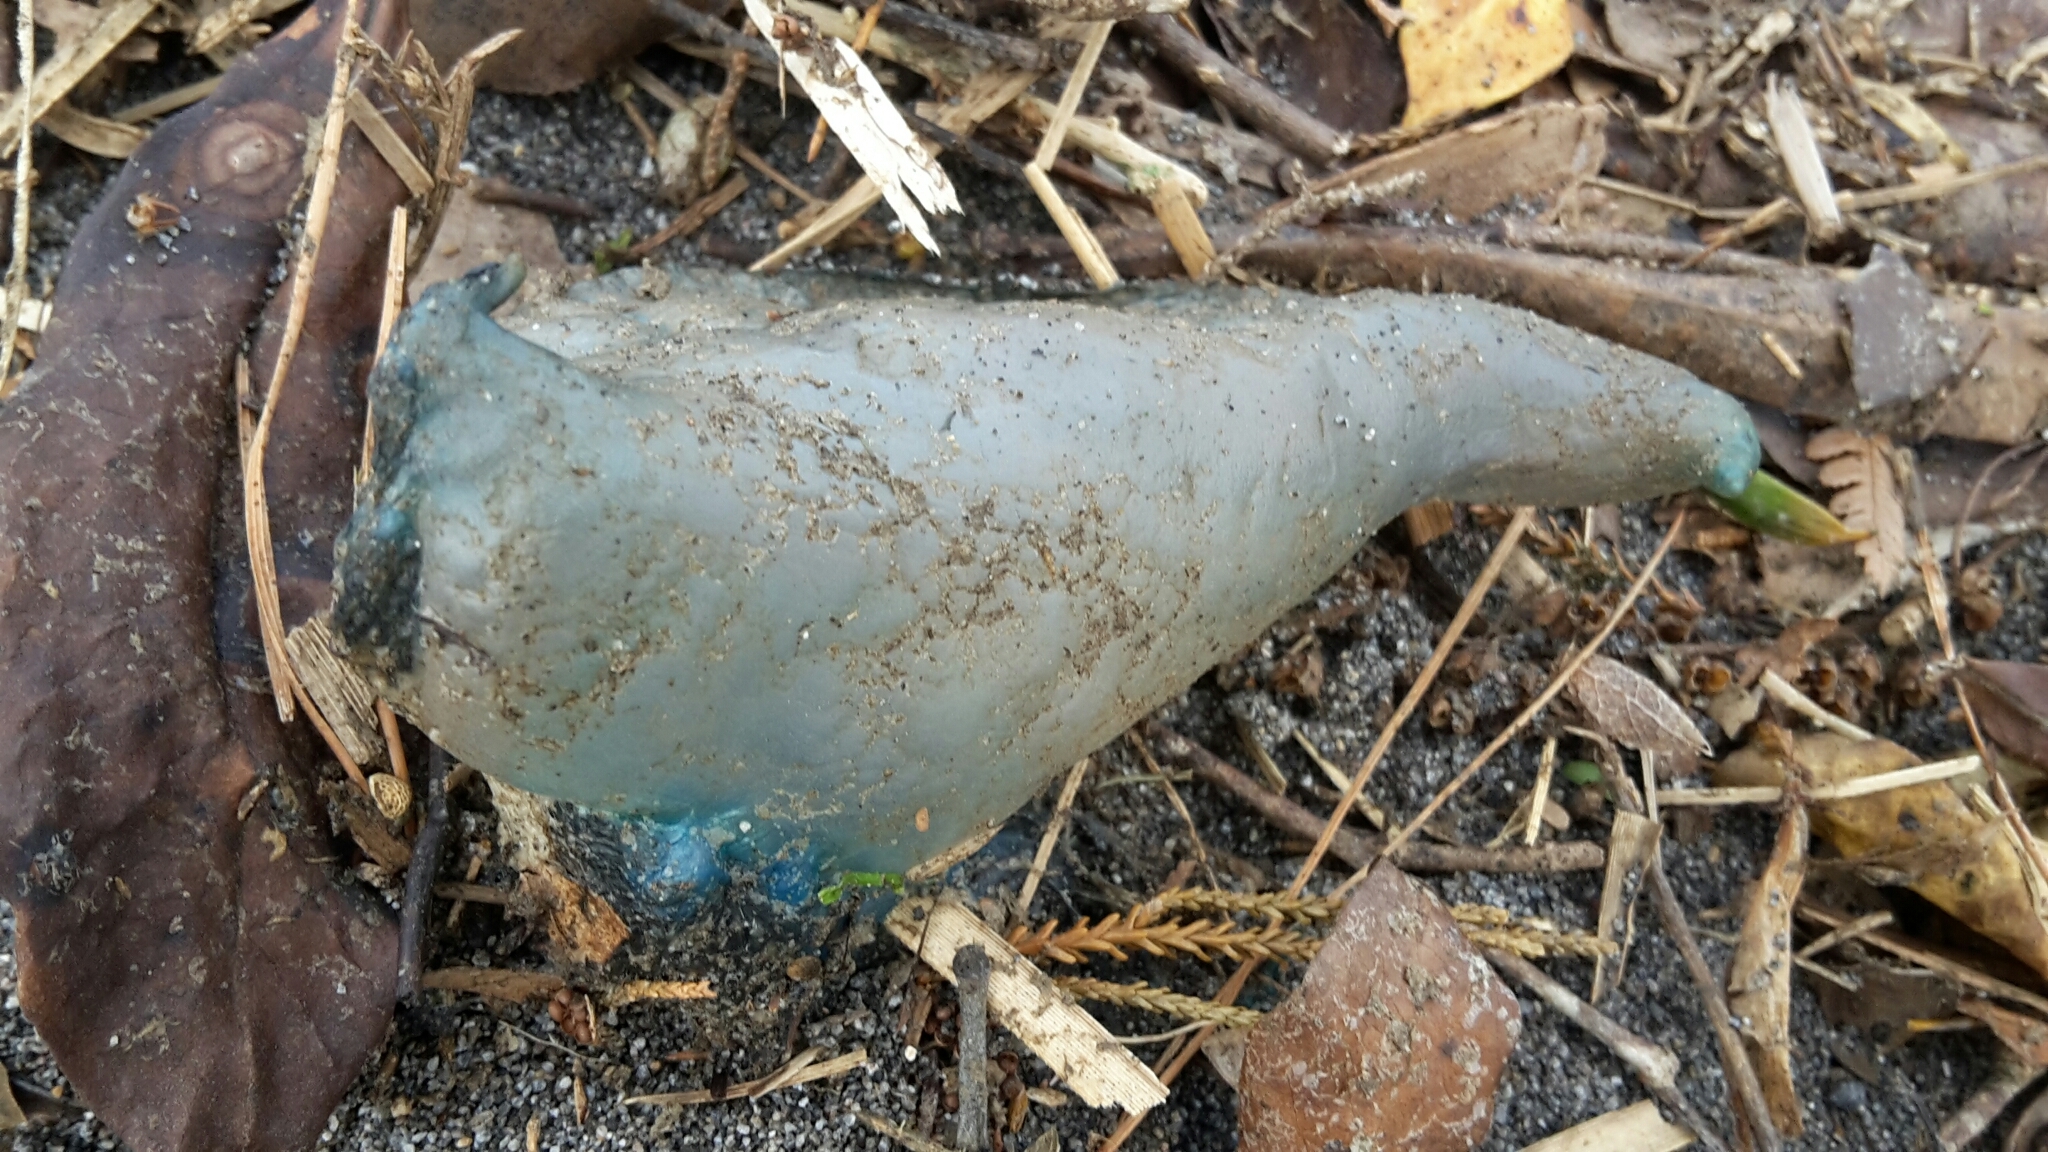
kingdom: Animalia
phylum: Cnidaria
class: Hydrozoa
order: Siphonophorae
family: Physaliidae
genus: Physalia
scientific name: Physalia physalis
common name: Portuguese man-of-war
